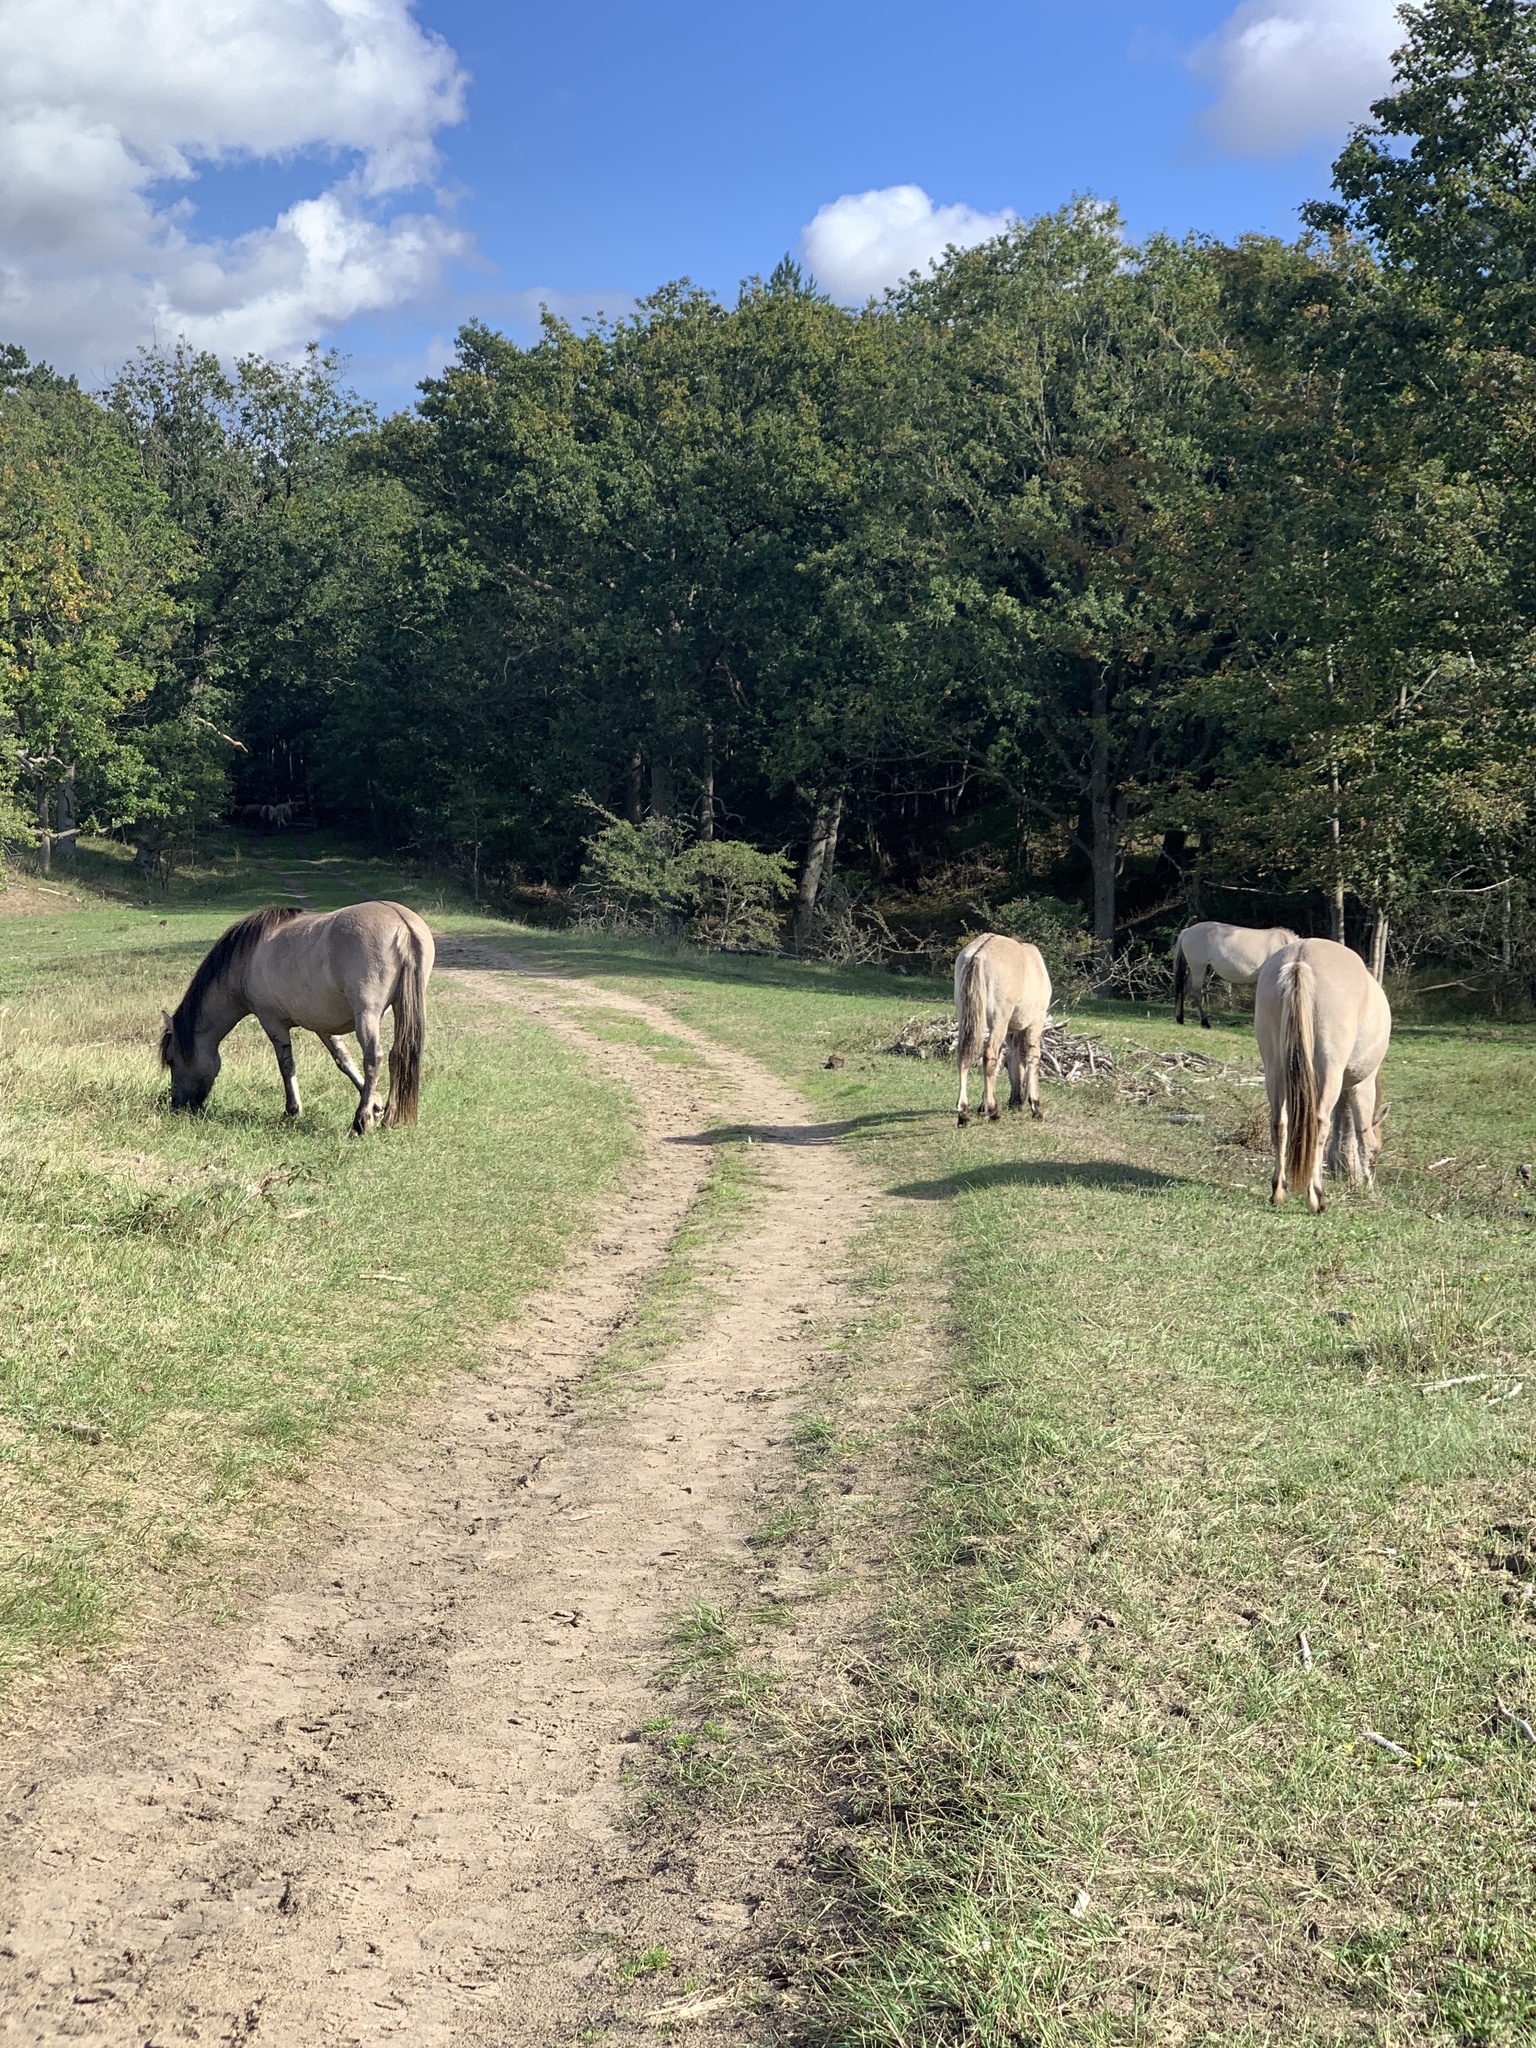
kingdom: Animalia
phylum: Chordata
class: Mammalia
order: Perissodactyla
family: Equidae
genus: Equus
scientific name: Equus caballus
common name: Horse
